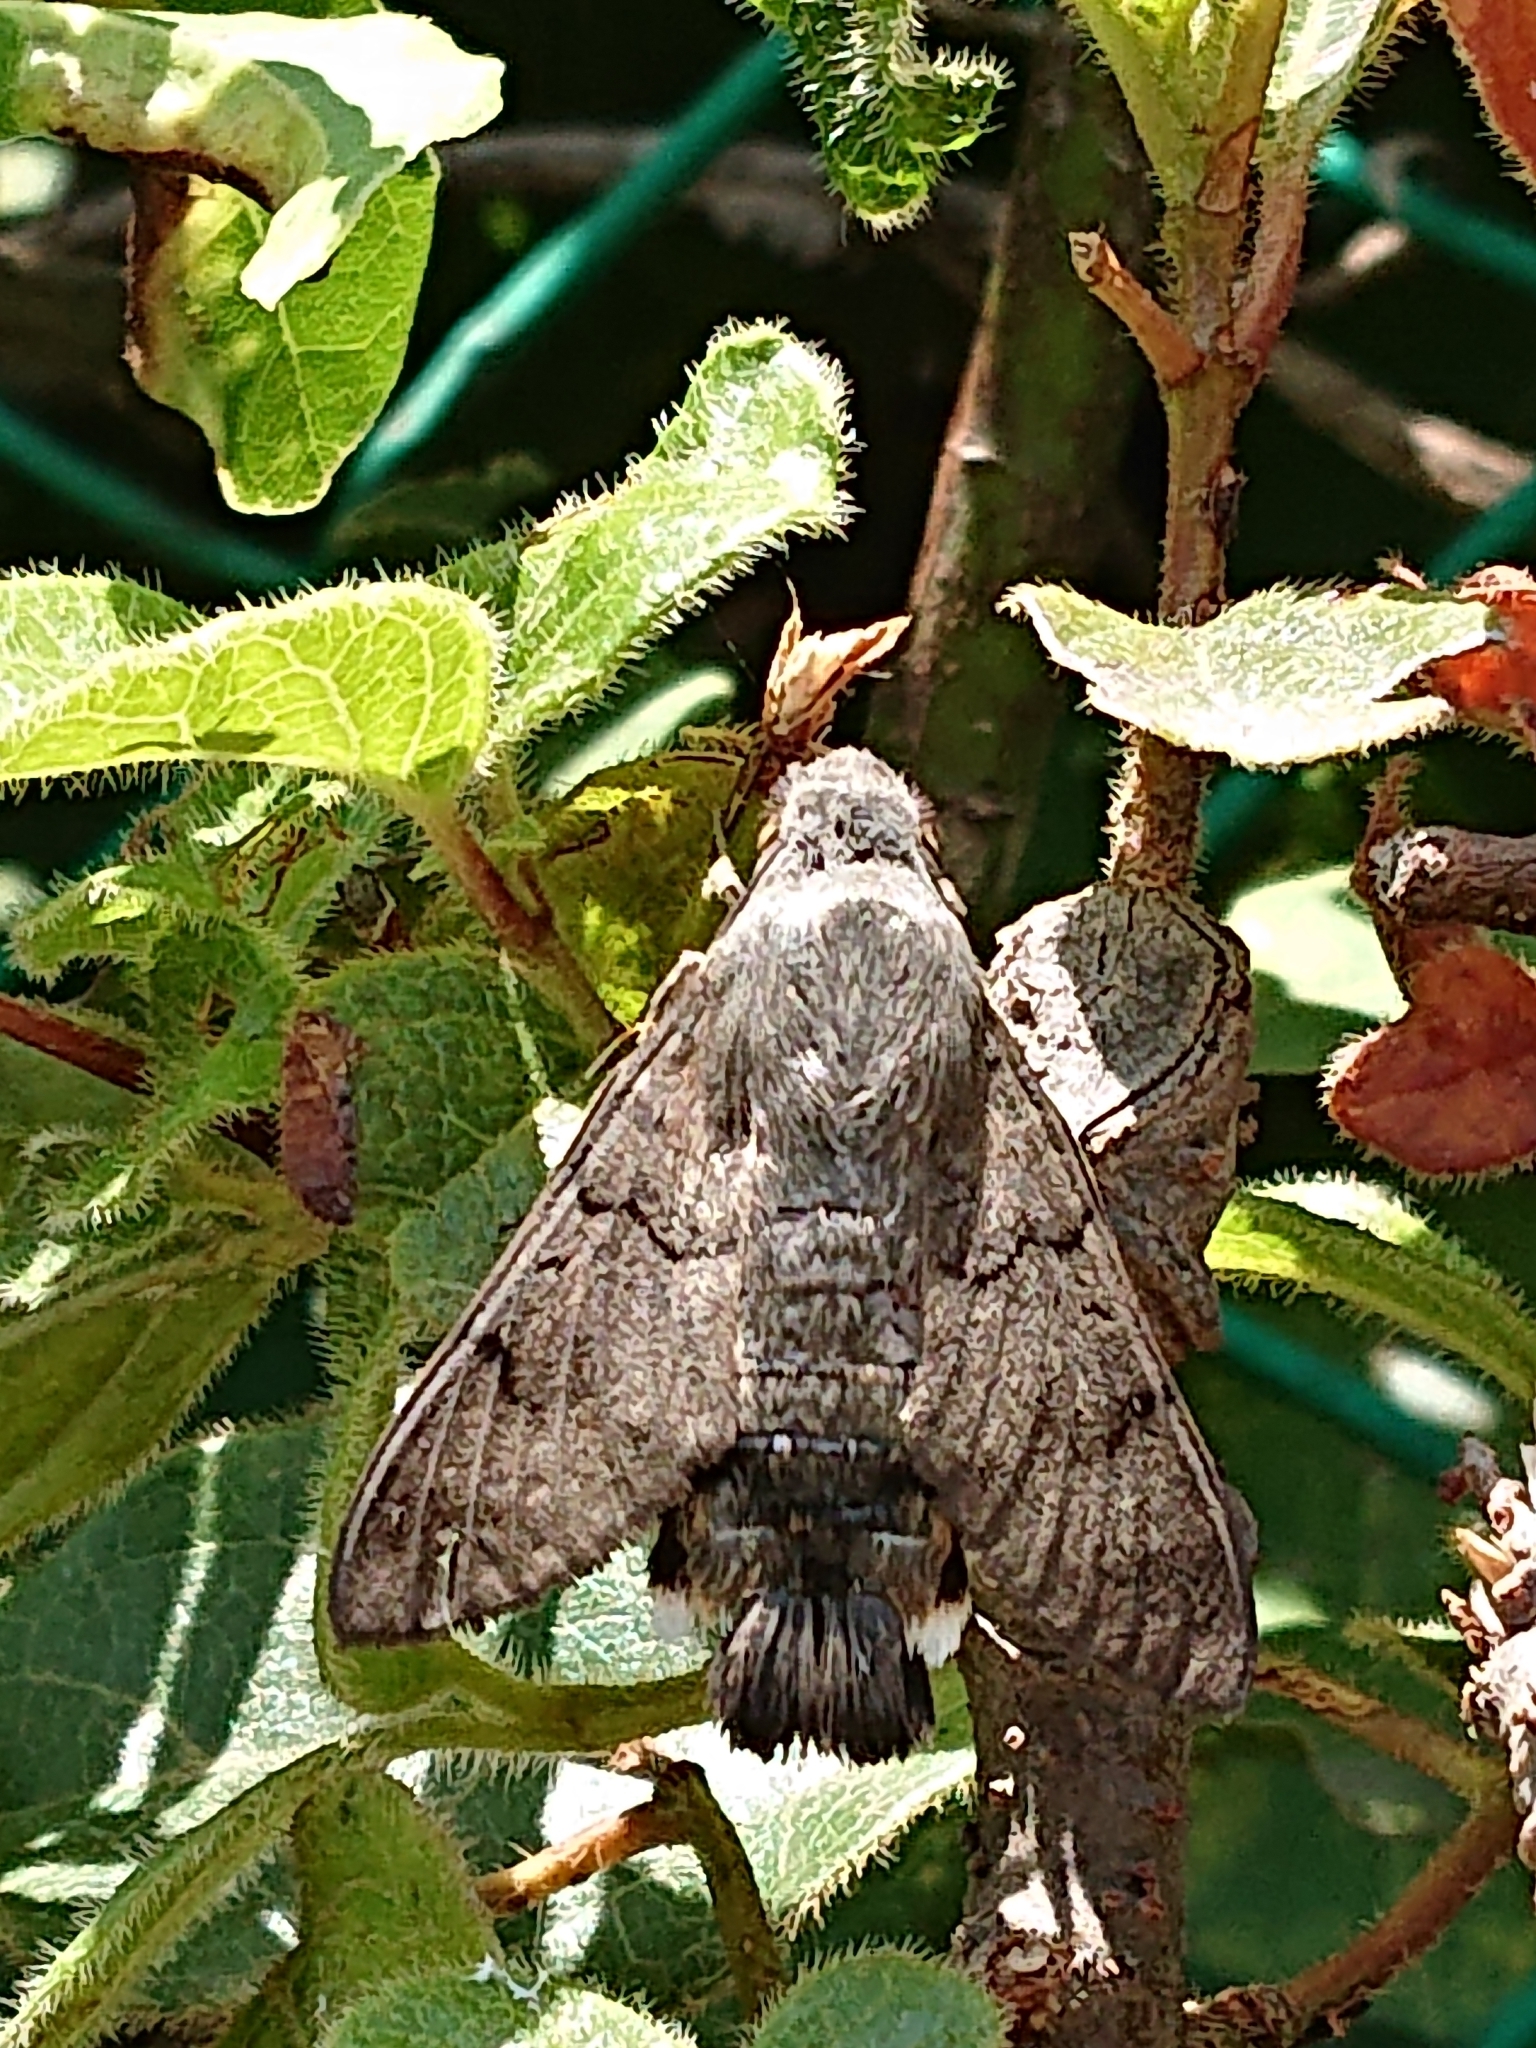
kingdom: Animalia
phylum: Arthropoda
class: Insecta
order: Lepidoptera
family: Sphingidae
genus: Macroglossum
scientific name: Macroglossum stellatarum
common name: Humming-bird hawk-moth
